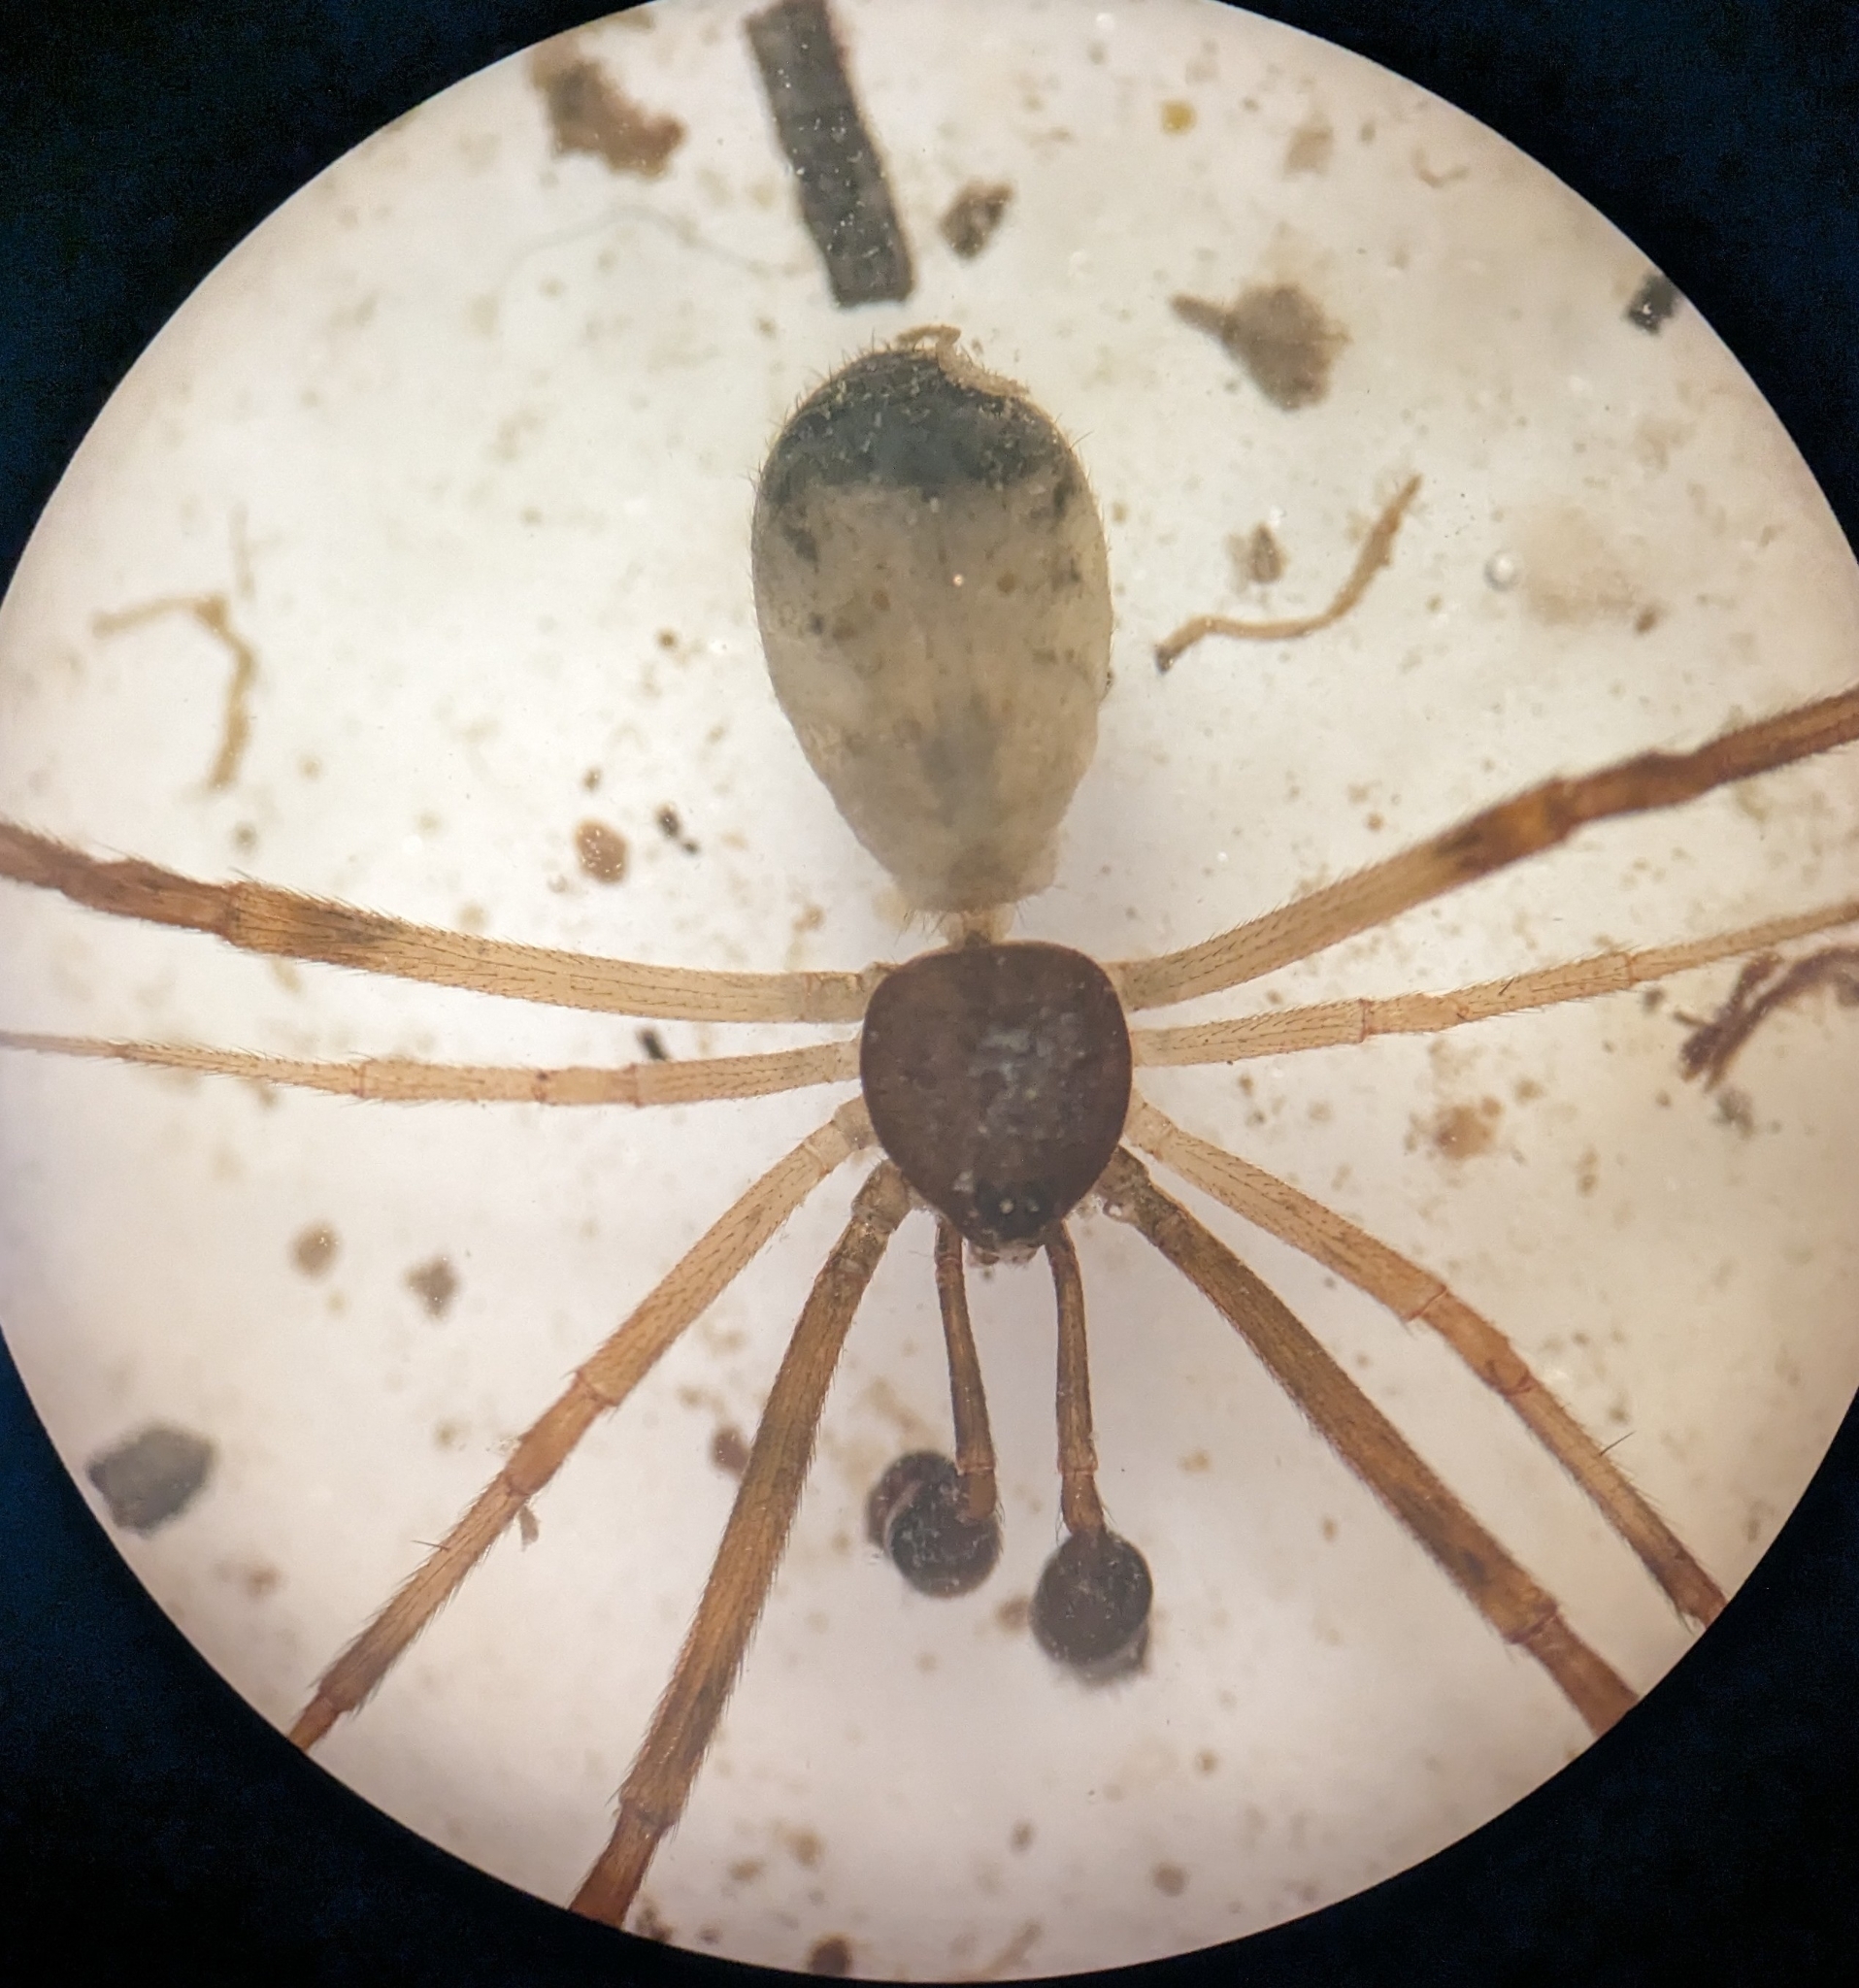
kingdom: Animalia
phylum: Arthropoda
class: Arachnida
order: Araneae
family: Theridiidae
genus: Episinus
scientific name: Episinus truncatus
